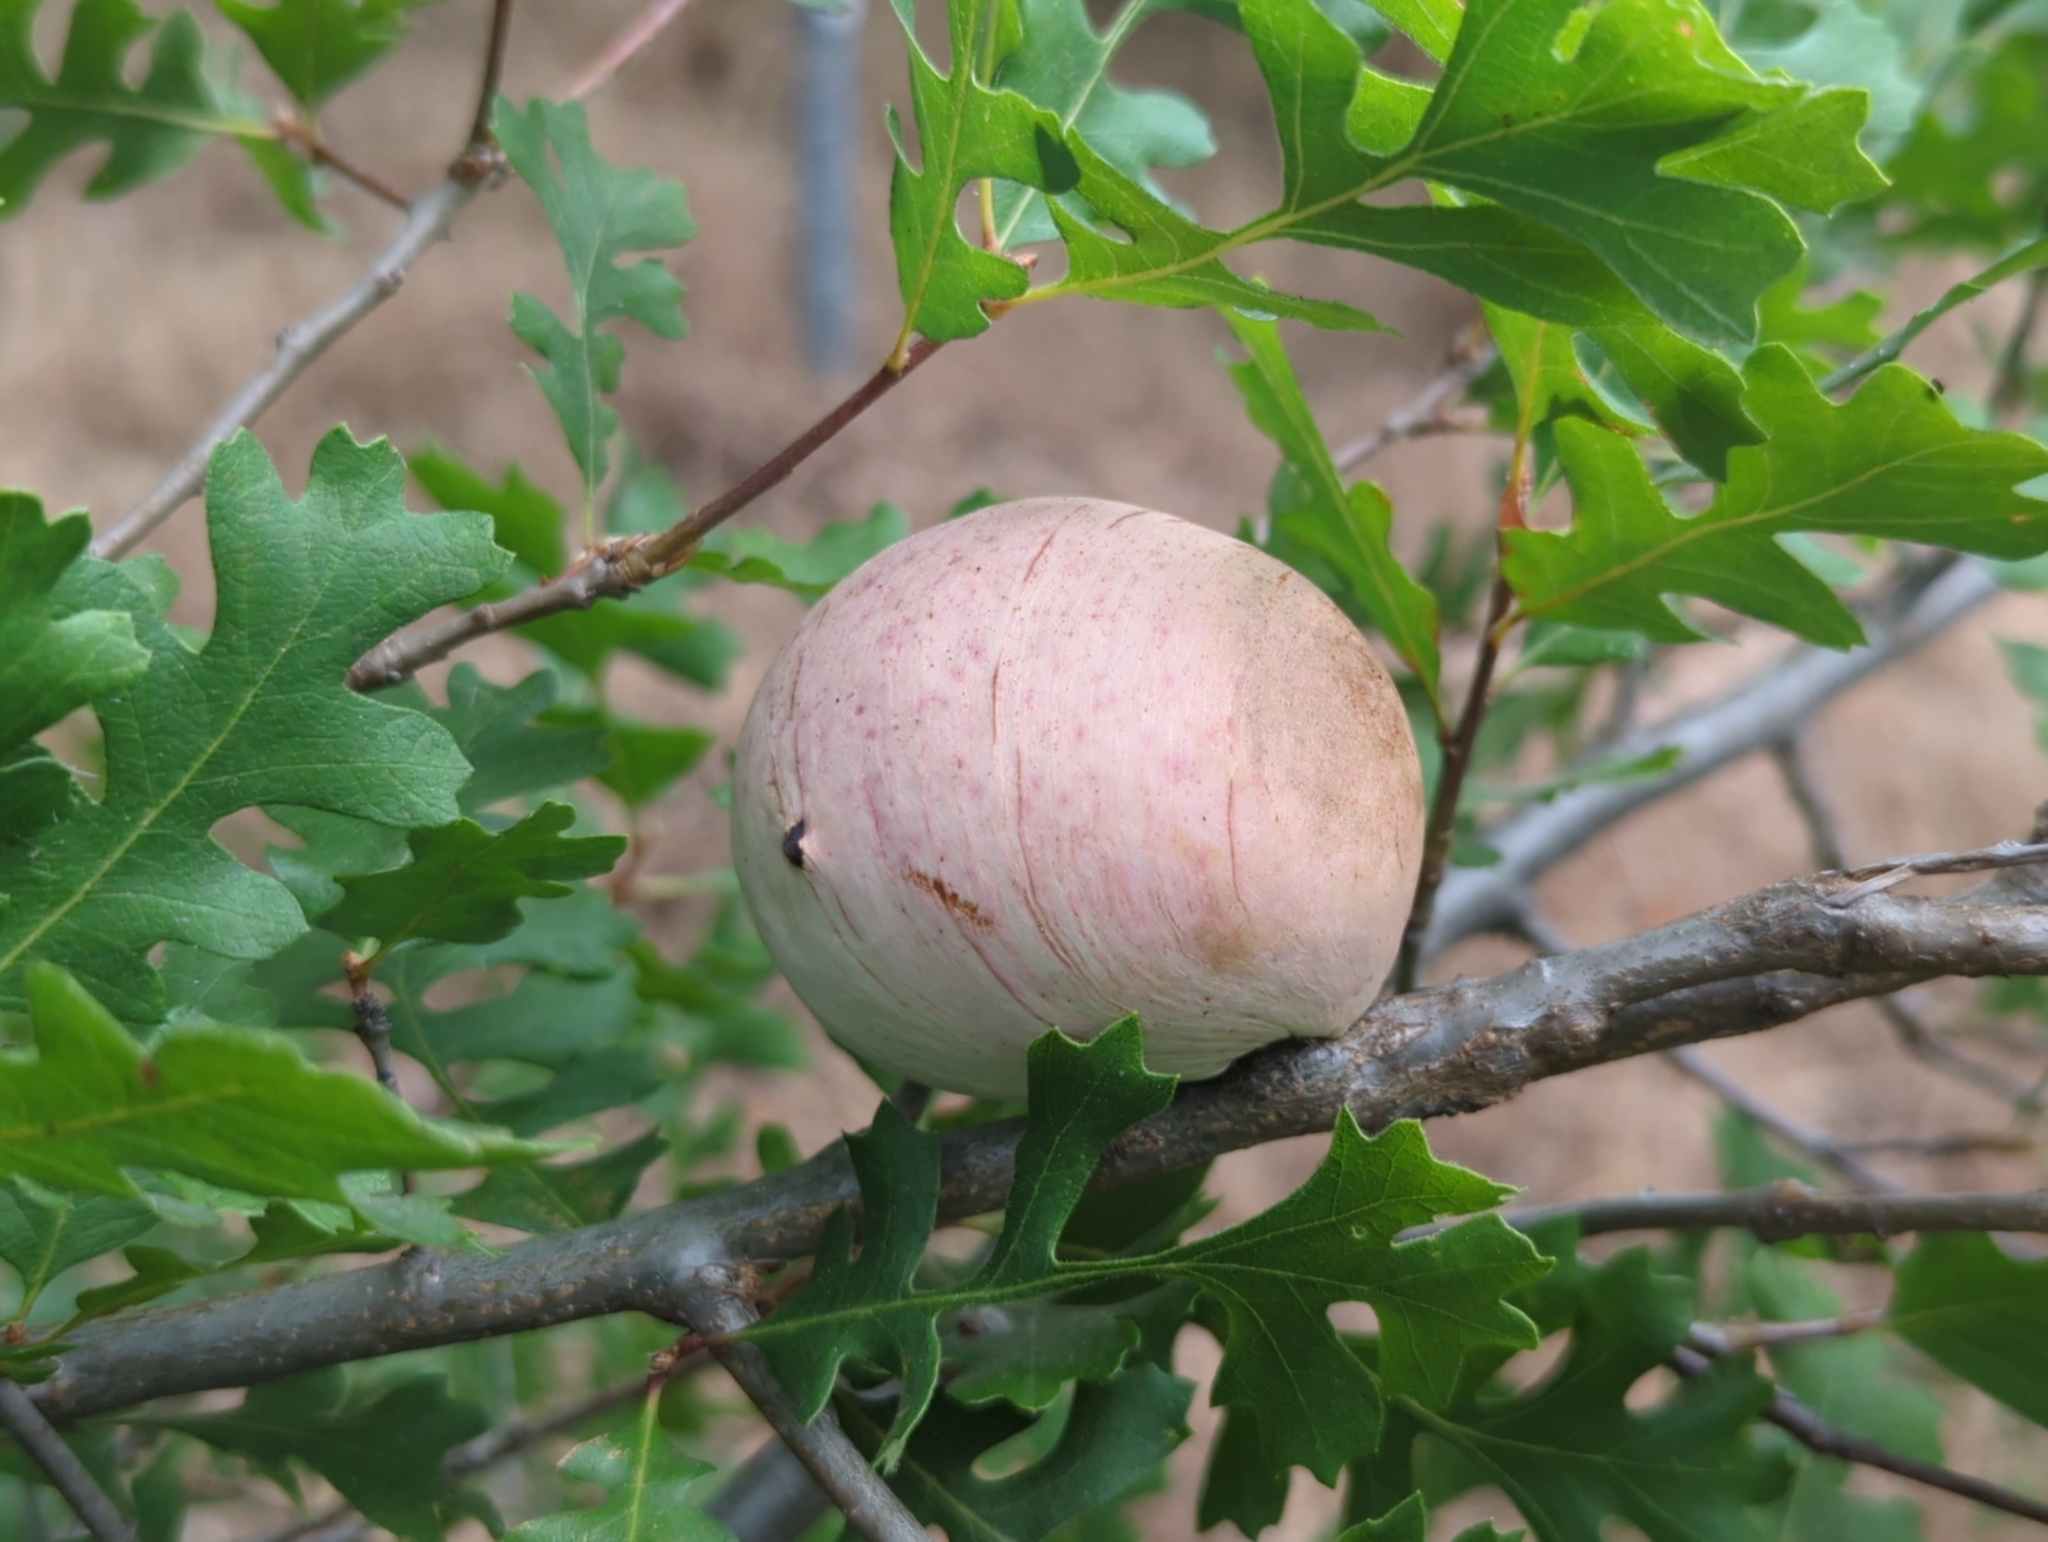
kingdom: Animalia
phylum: Arthropoda
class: Insecta
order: Hymenoptera
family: Cynipidae
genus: Andricus
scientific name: Andricus quercuscalifornicus
